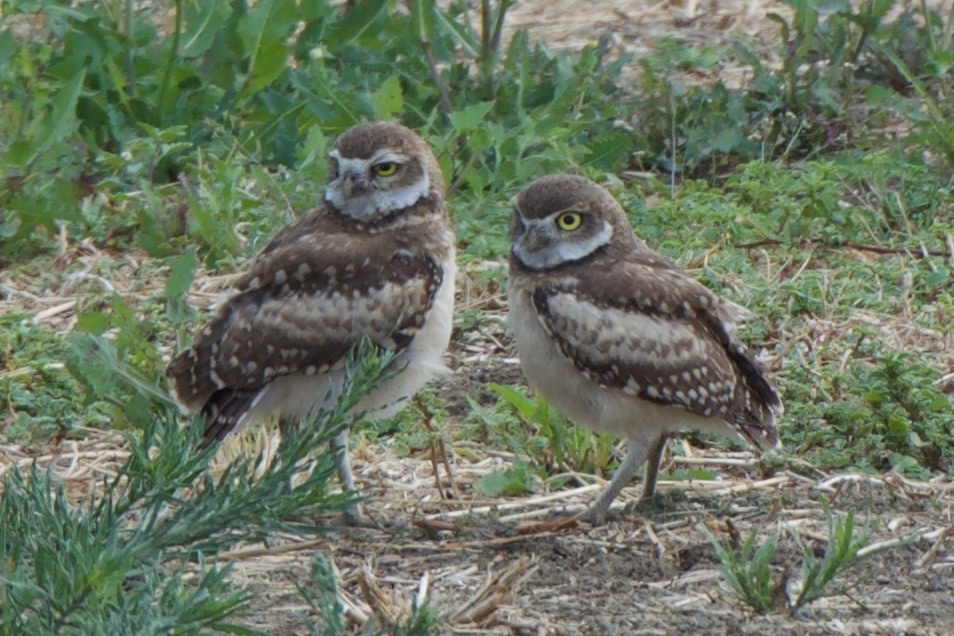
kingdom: Animalia
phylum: Chordata
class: Aves
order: Strigiformes
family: Strigidae
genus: Athene
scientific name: Athene cunicularia
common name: Burrowing owl
